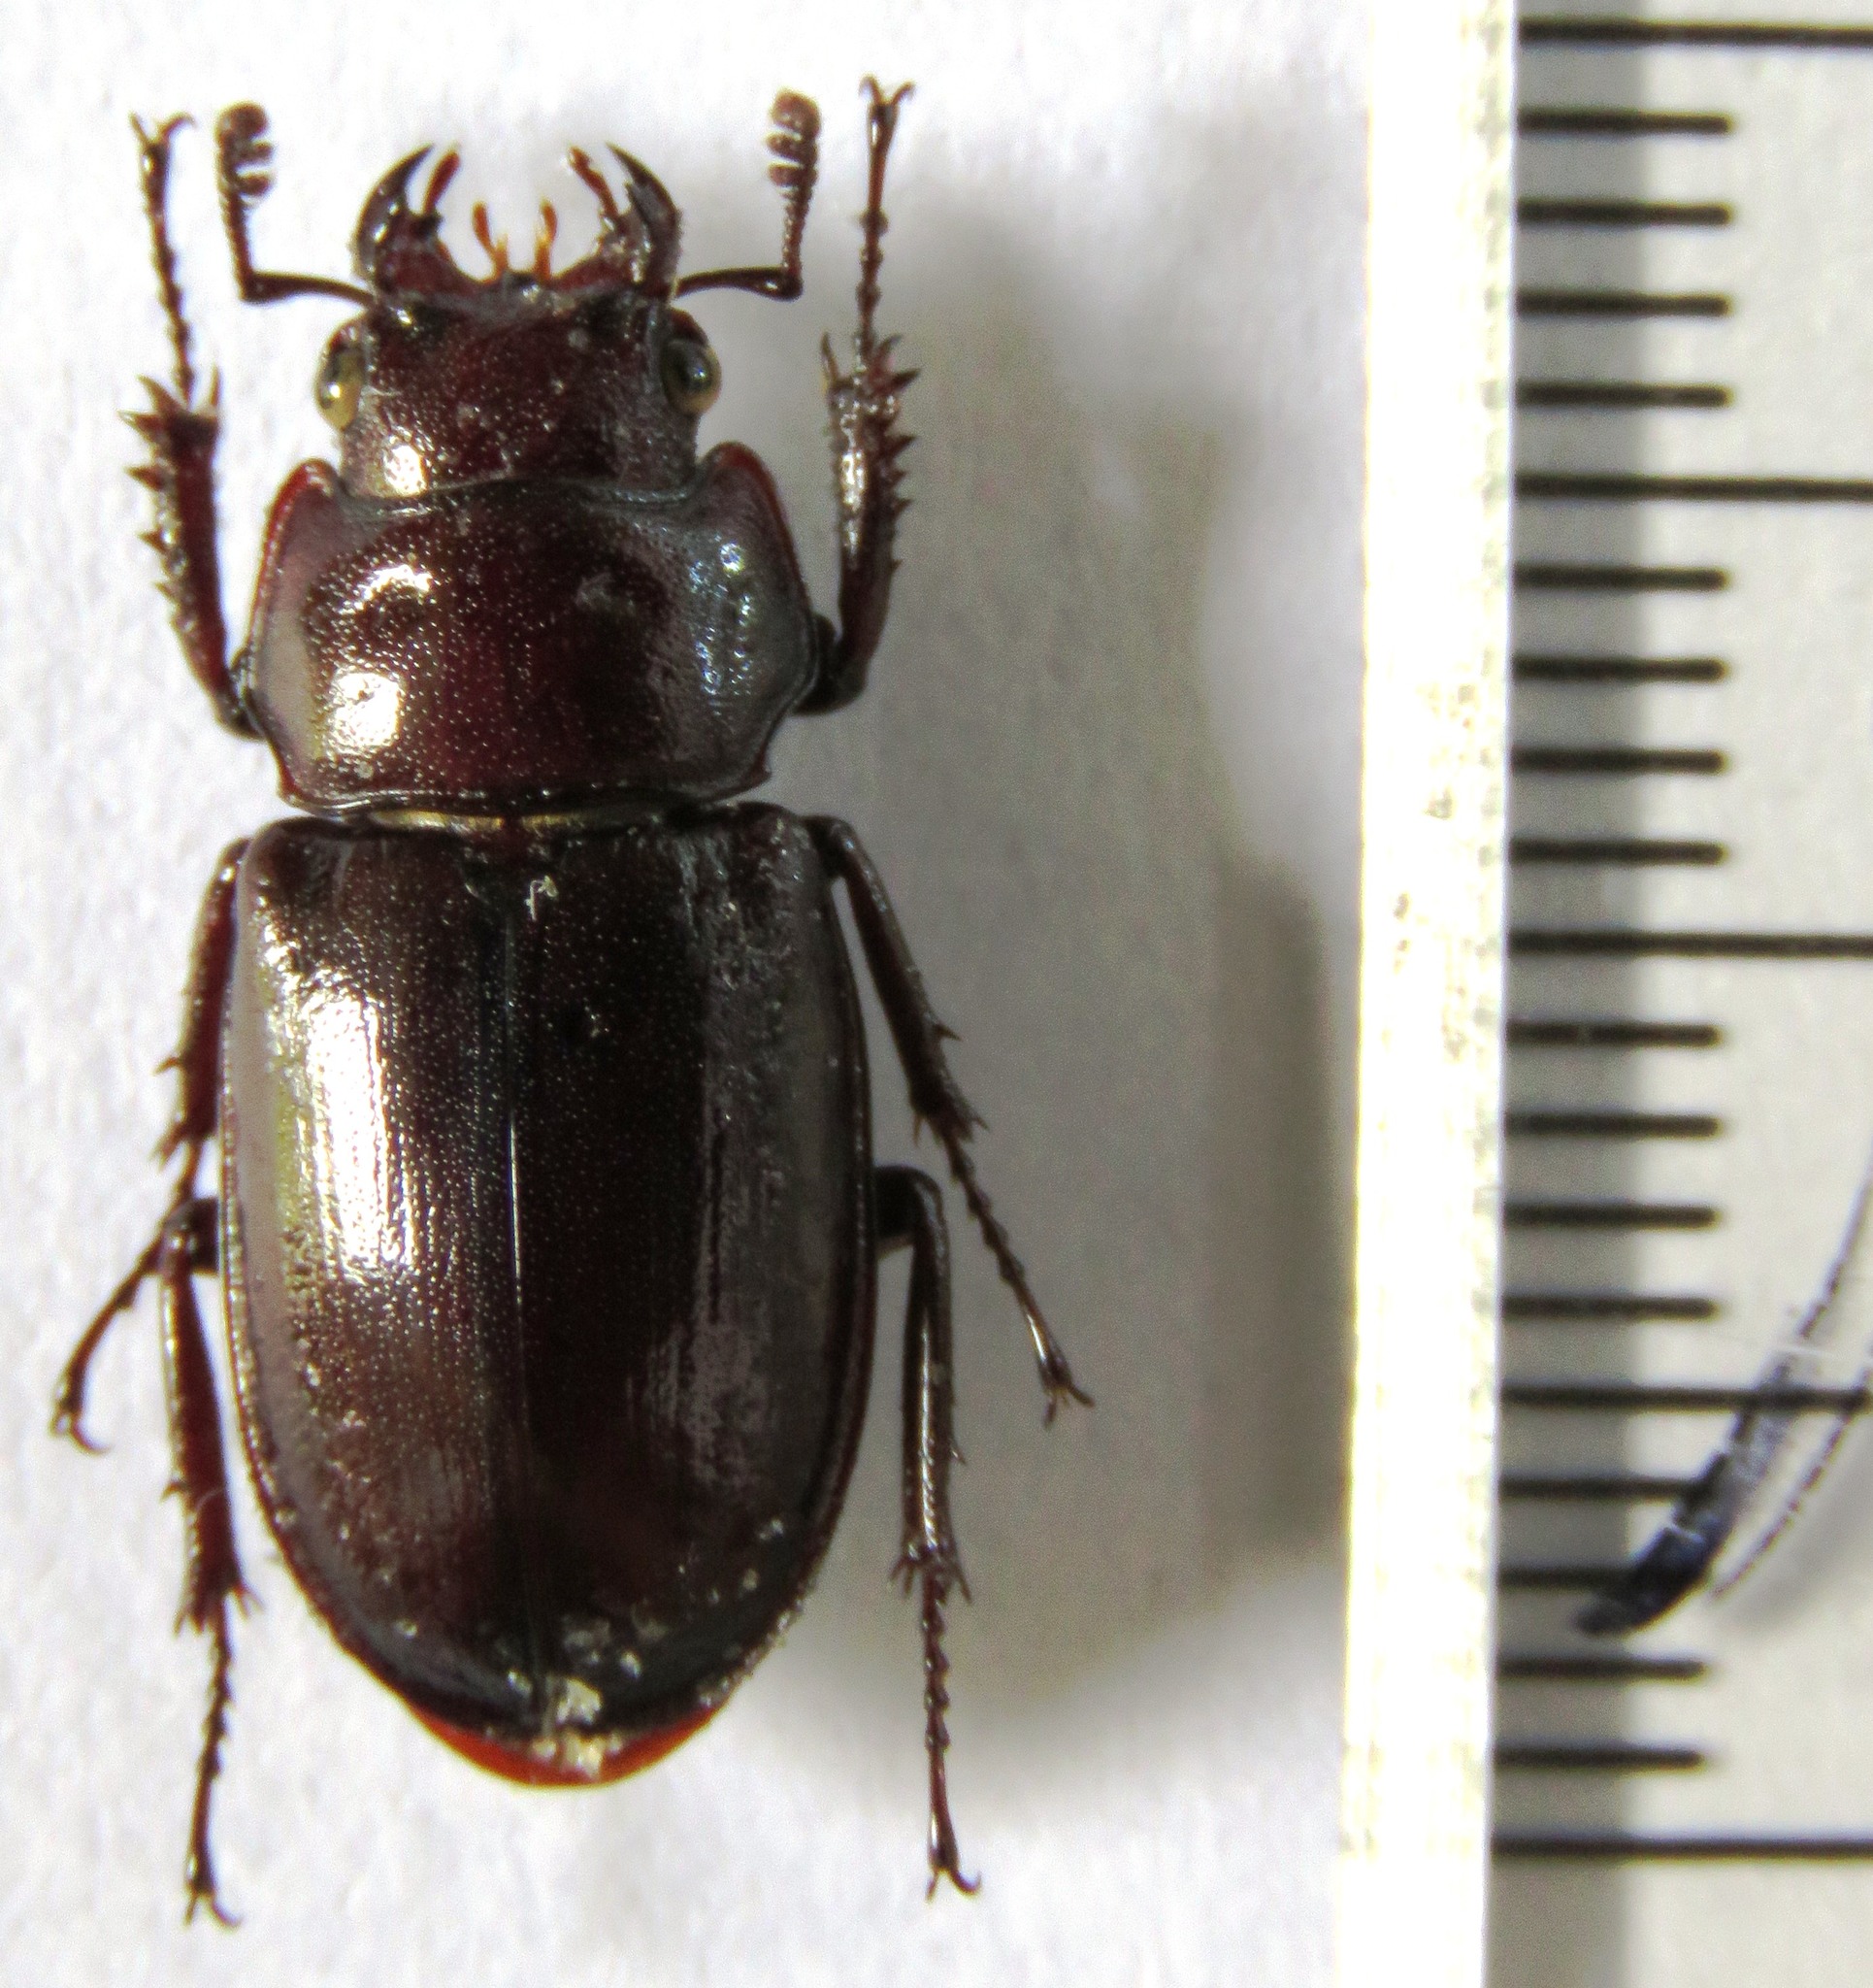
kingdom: Animalia
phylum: Arthropoda
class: Insecta
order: Coleoptera
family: Lucanidae
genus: Prismognathus
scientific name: Prismognathus angularis
